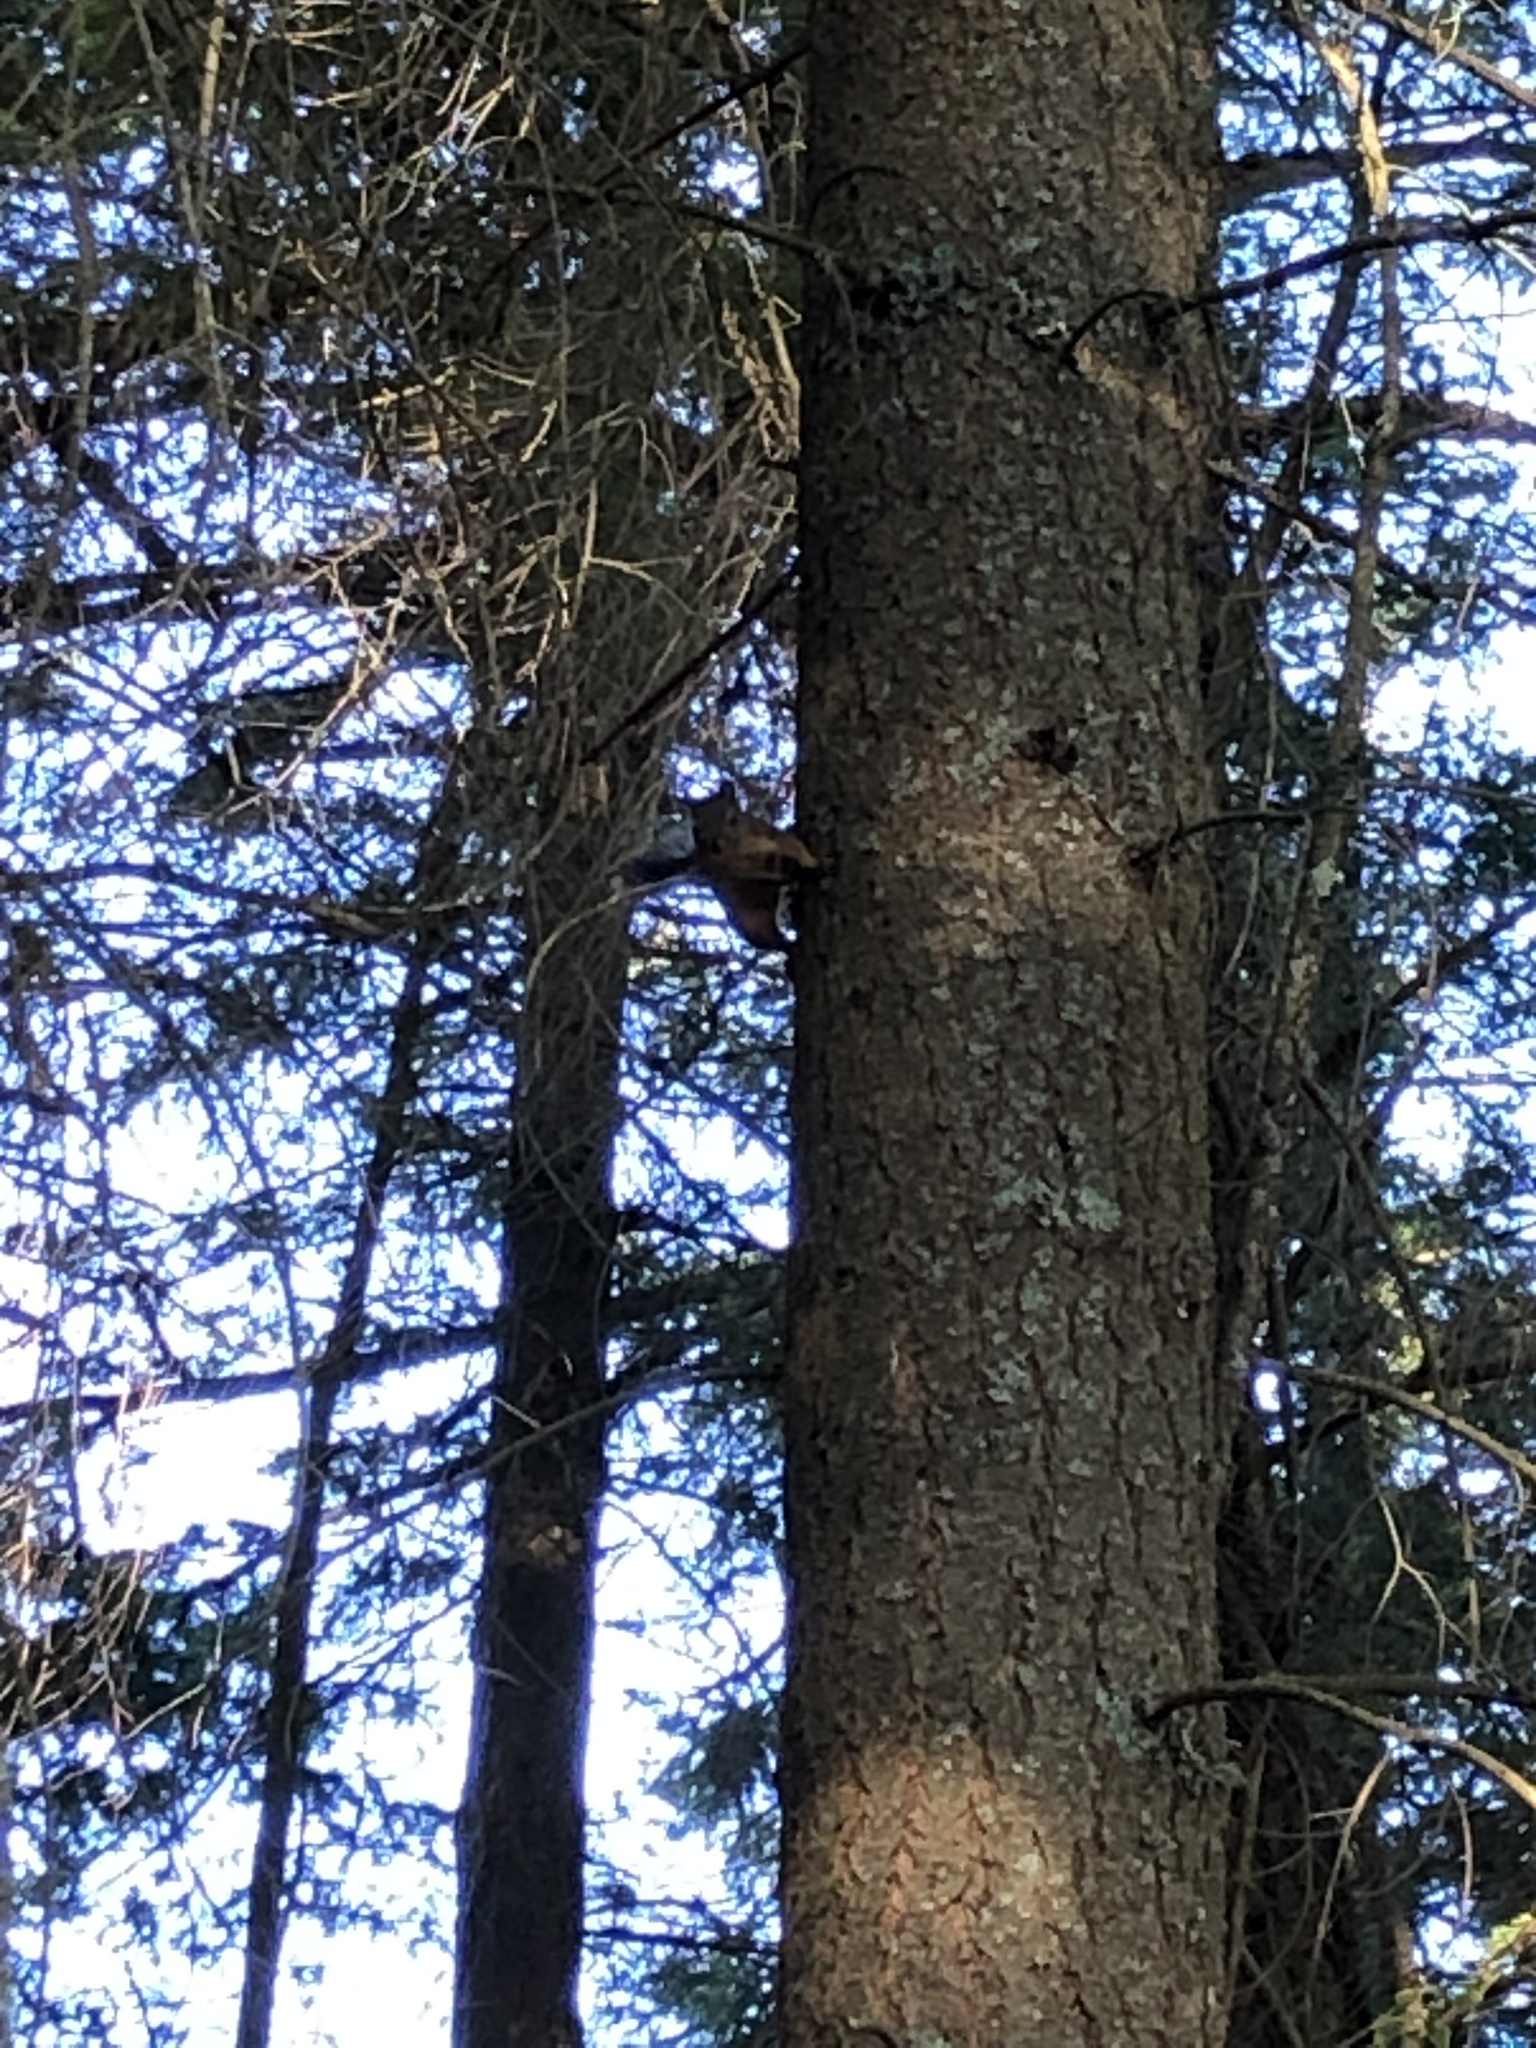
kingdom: Animalia
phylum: Chordata
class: Mammalia
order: Rodentia
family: Sciuridae
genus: Tamiasciurus
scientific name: Tamiasciurus douglasii
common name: Douglas's squirrel
